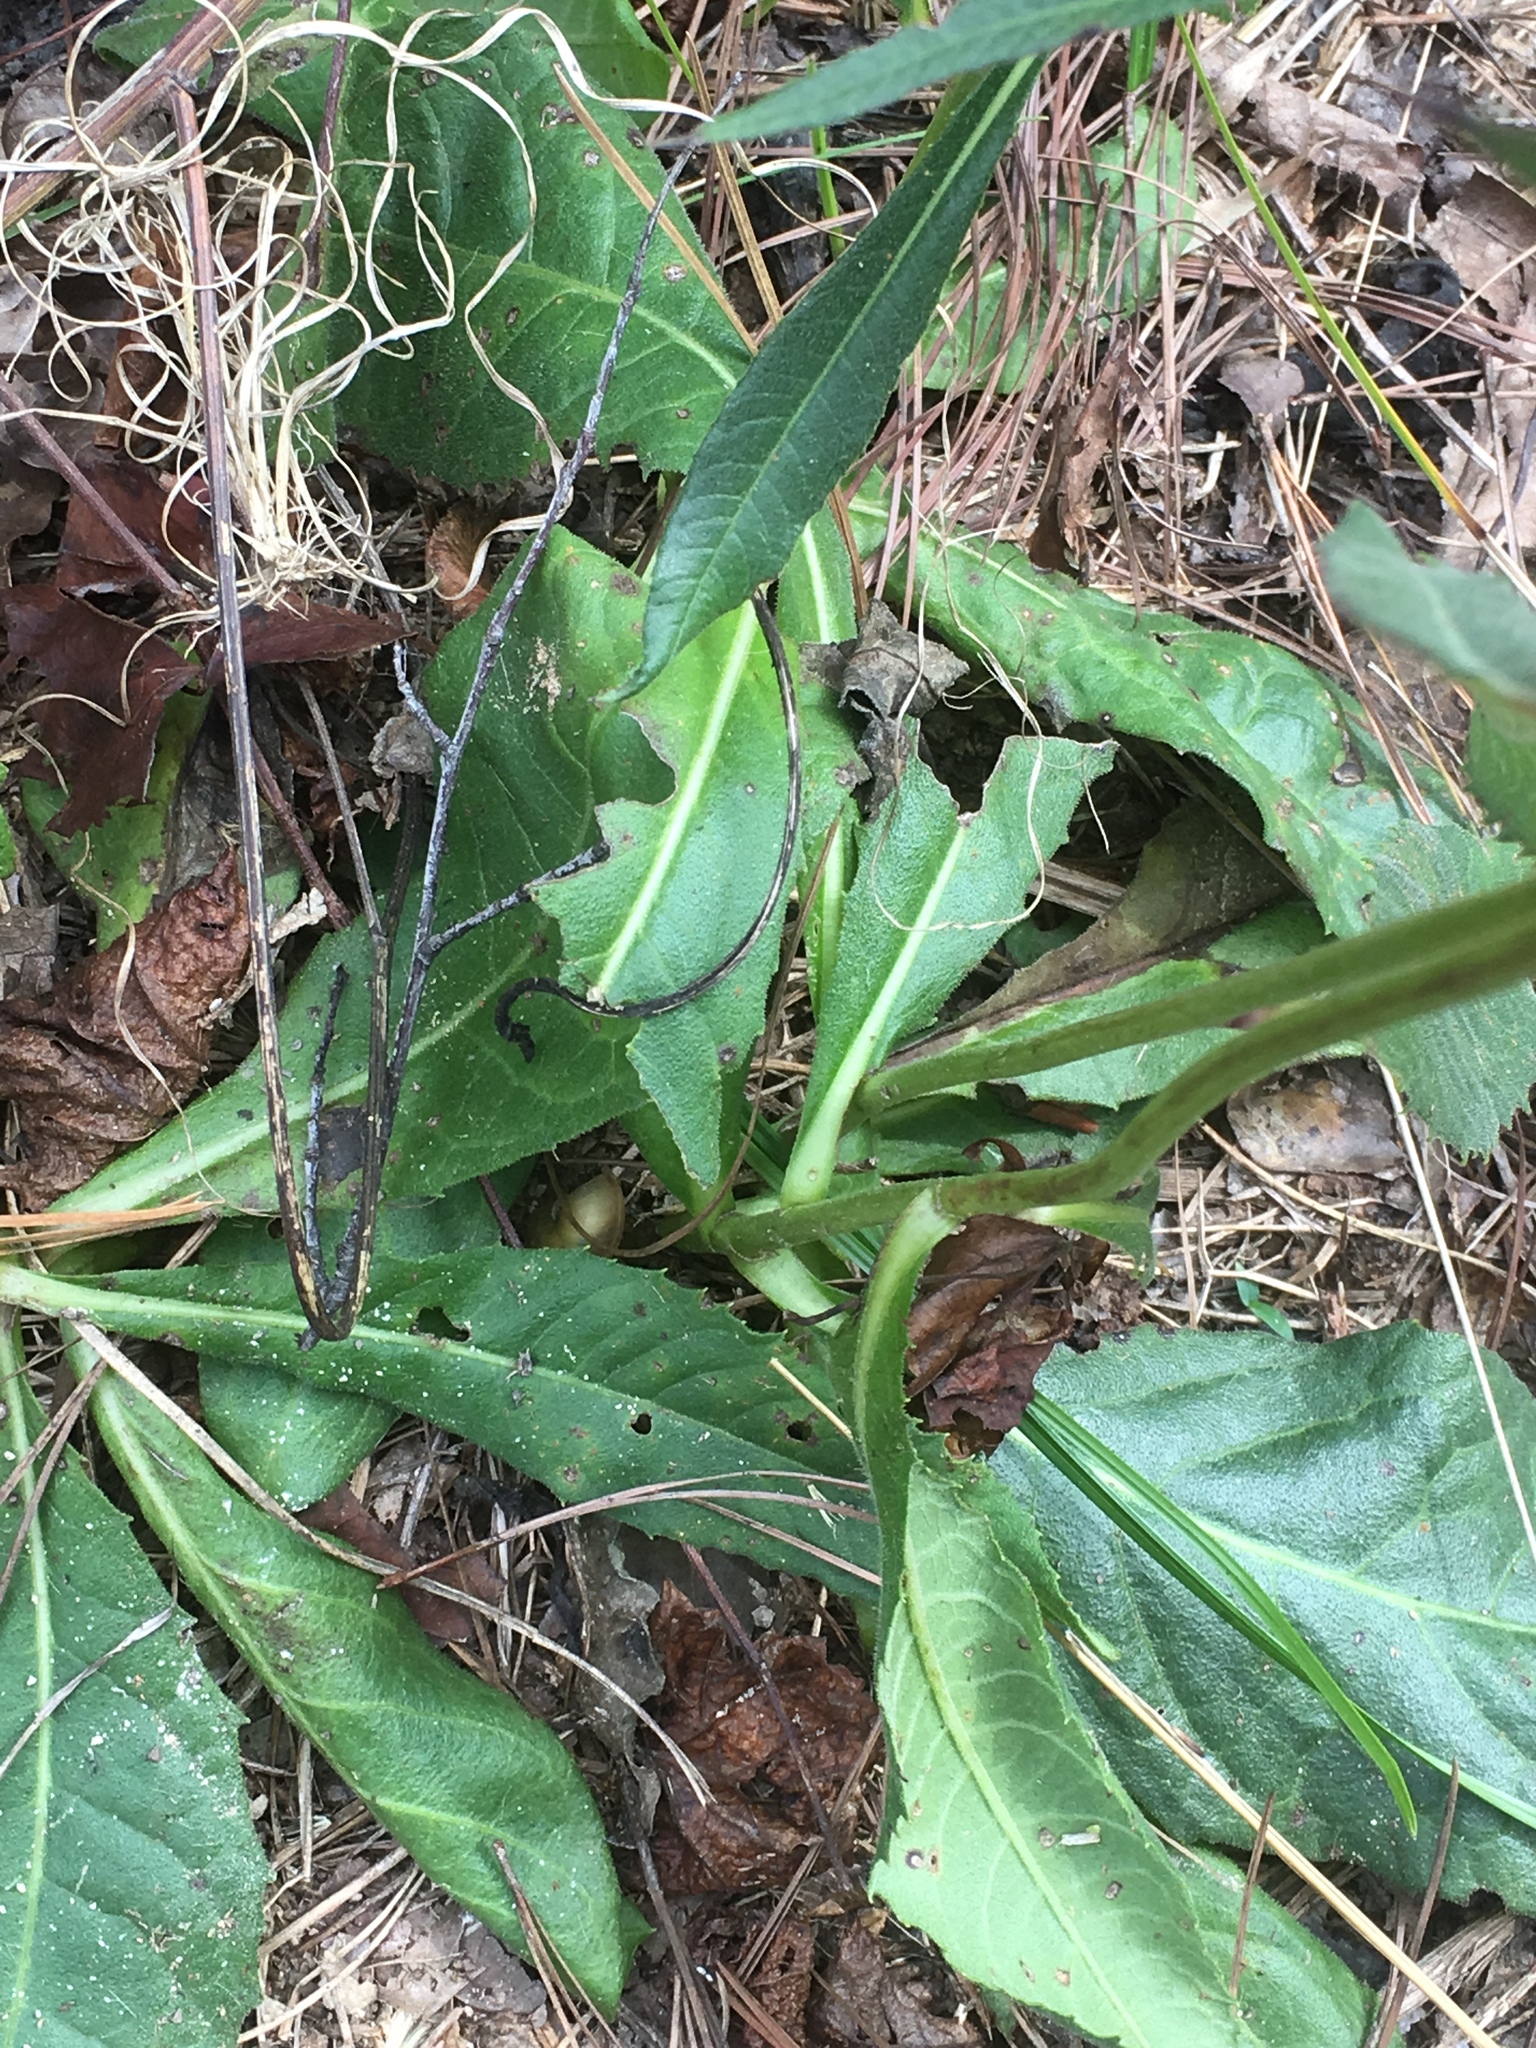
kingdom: Plantae
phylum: Tracheophyta
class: Magnoliopsida
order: Asterales
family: Asteraceae
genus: Vernonia
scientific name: Vernonia acaulis
